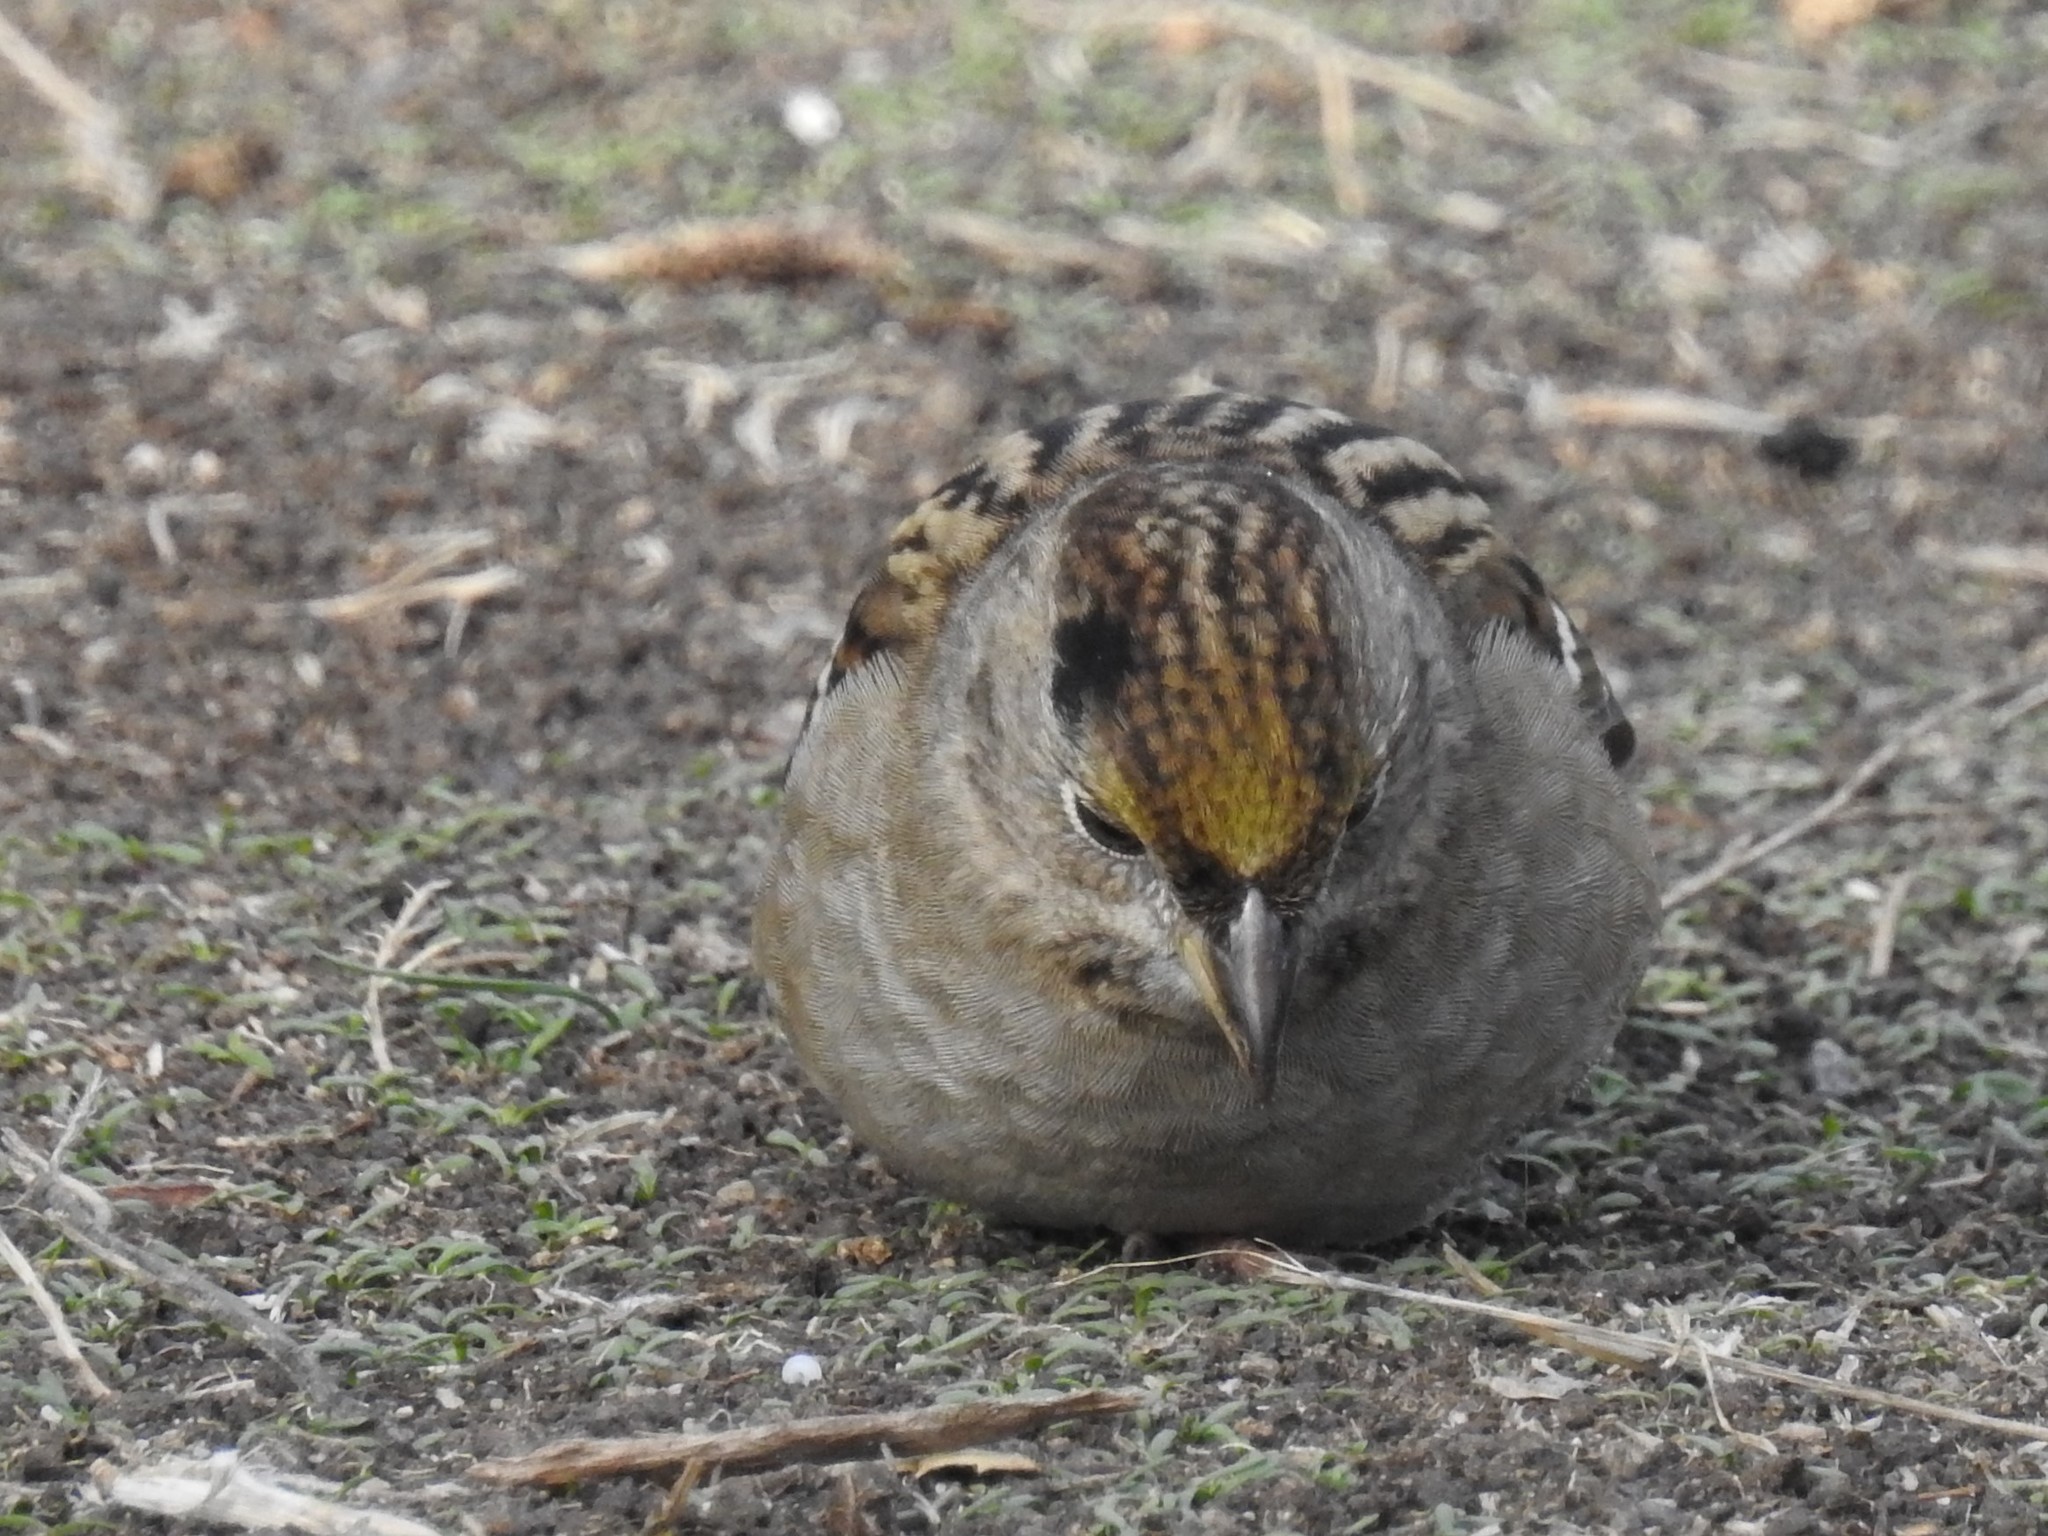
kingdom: Animalia
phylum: Chordata
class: Aves
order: Passeriformes
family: Passerellidae
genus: Zonotrichia
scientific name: Zonotrichia atricapilla
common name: Golden-crowned sparrow
